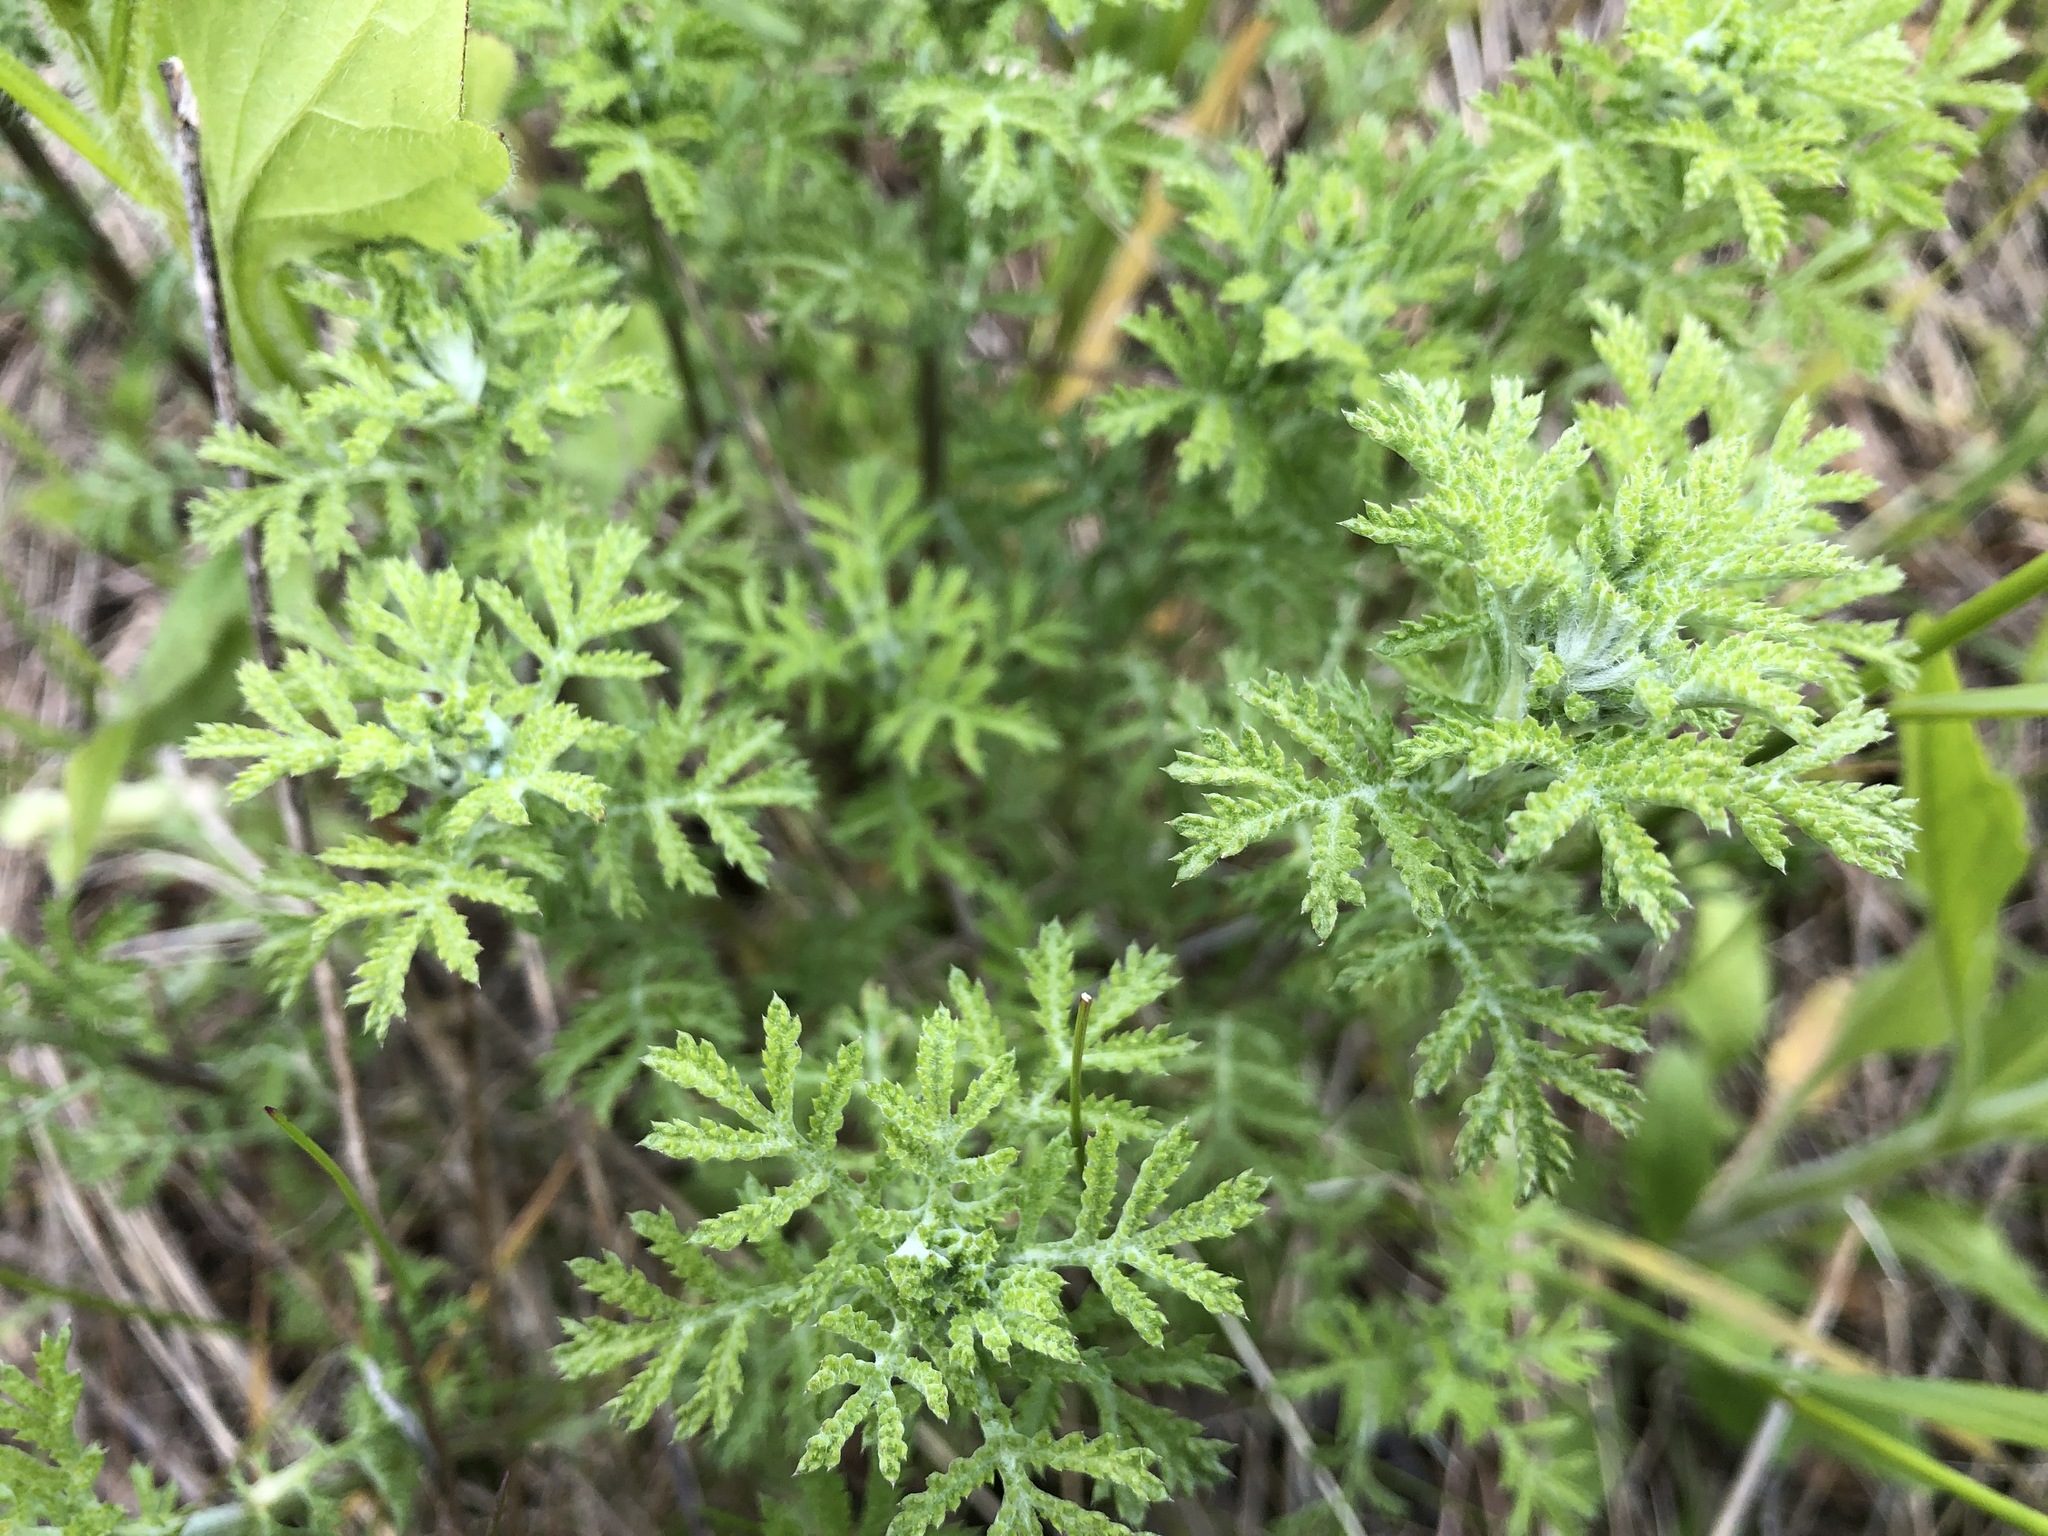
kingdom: Plantae
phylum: Tracheophyta
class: Magnoliopsida
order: Asterales
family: Asteraceae
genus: Cota
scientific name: Cota tinctoria
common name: Golden chamomile
